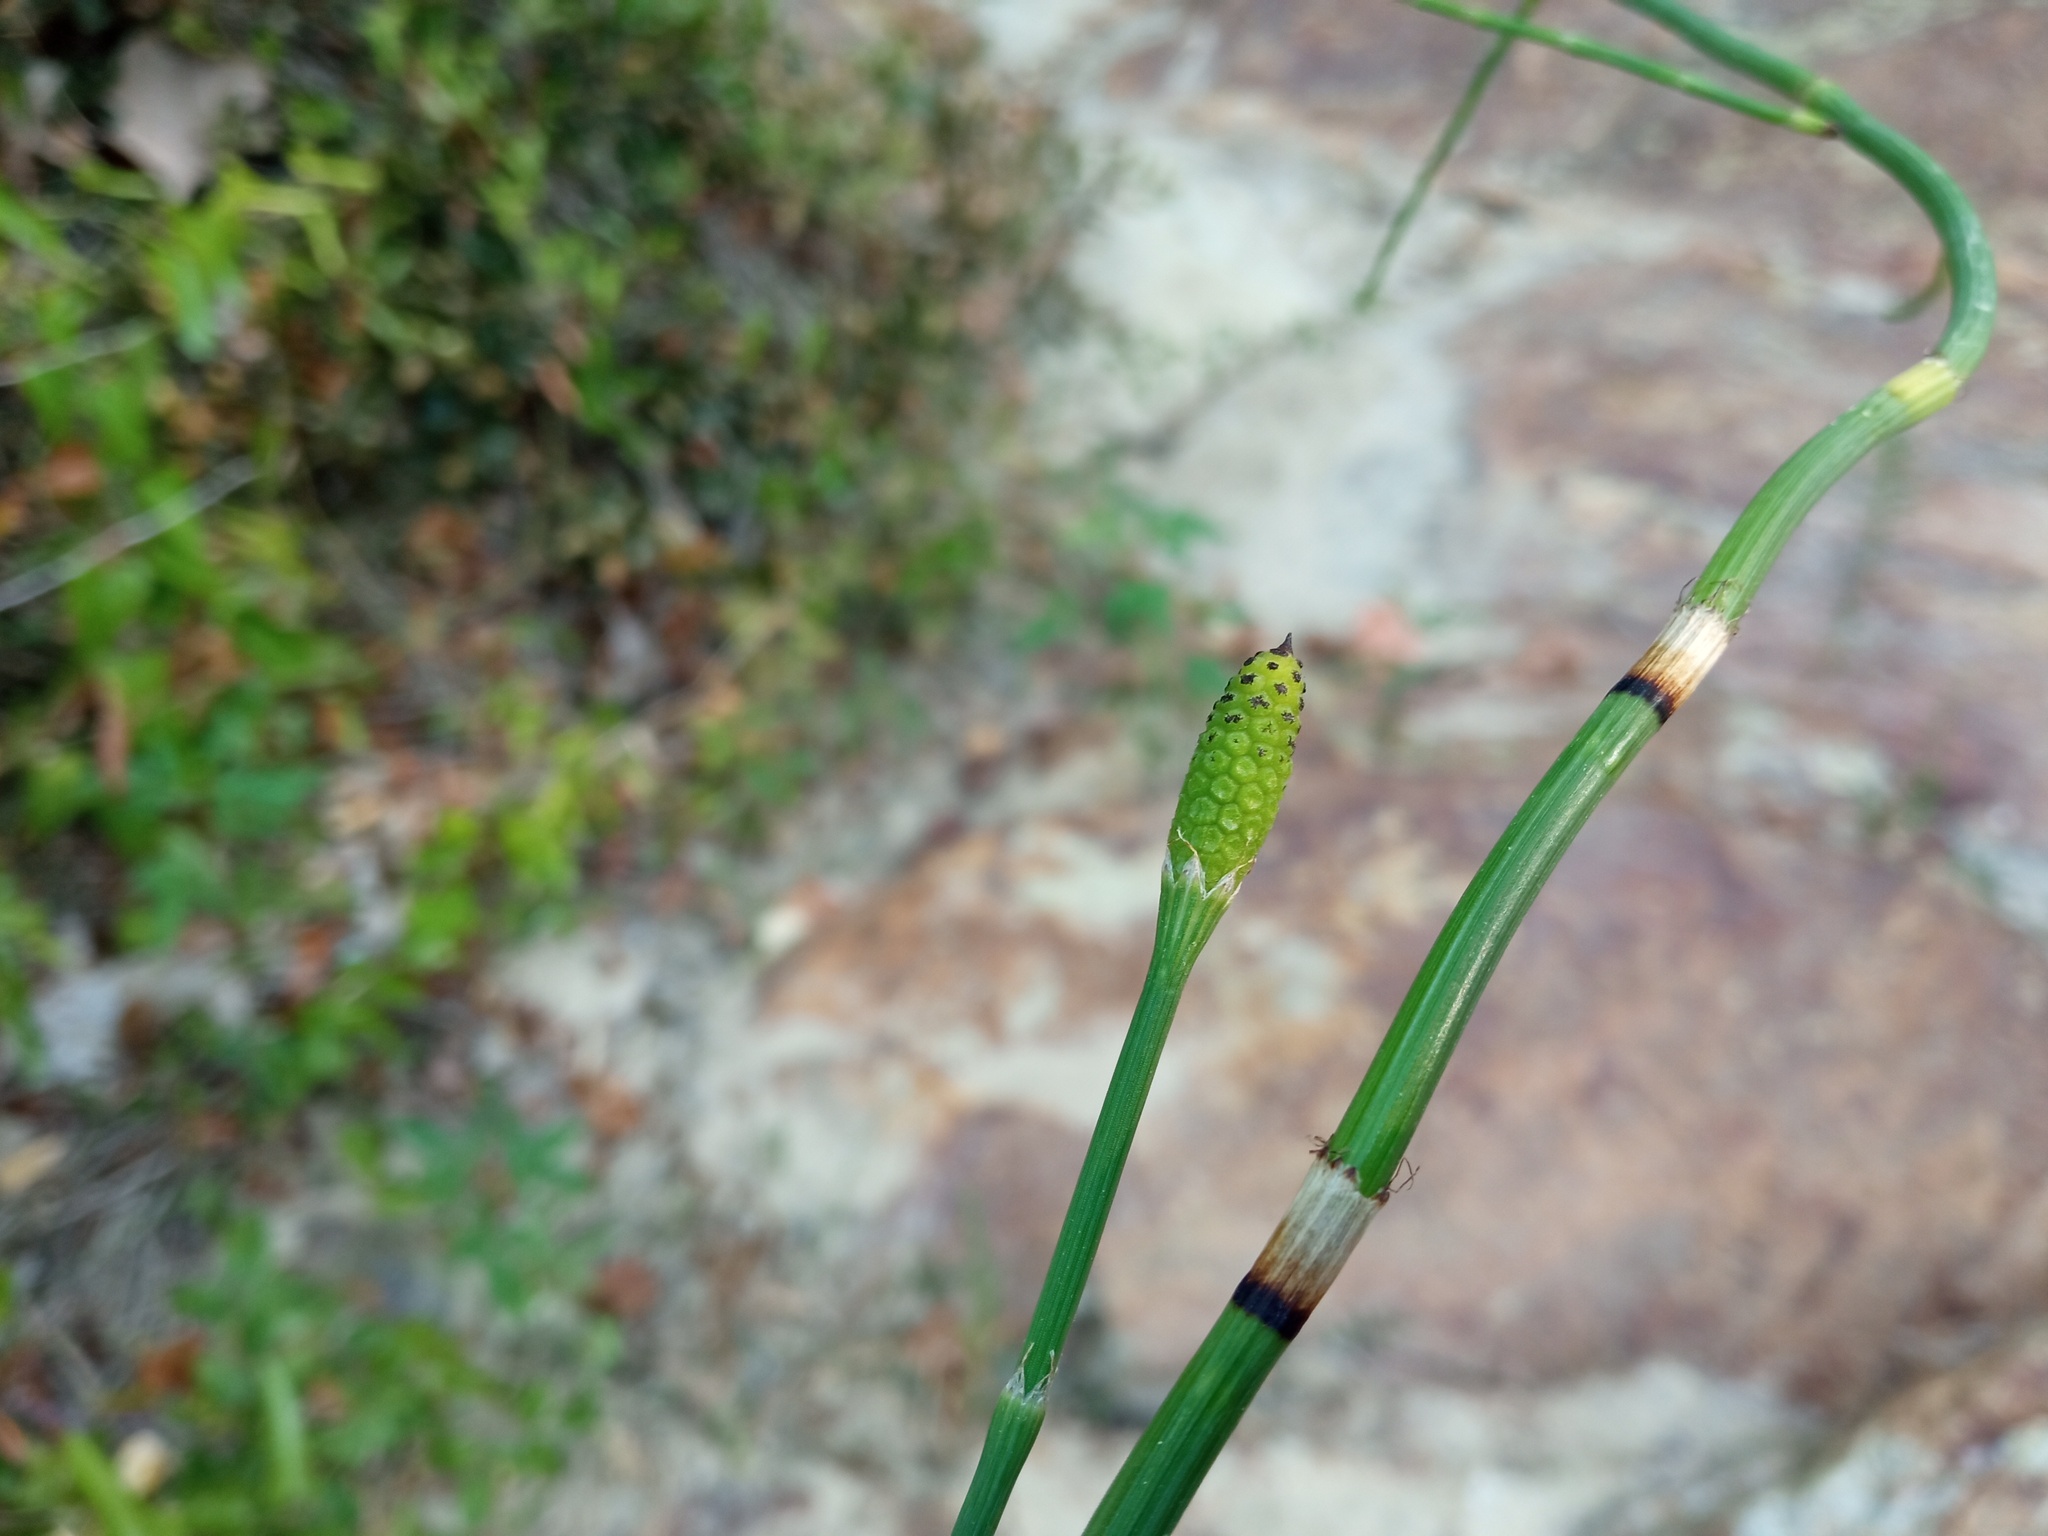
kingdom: Plantae
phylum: Tracheophyta
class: Polypodiopsida
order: Equisetales
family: Equisetaceae
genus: Equisetum
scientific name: Equisetum ramosissimum
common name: Branched horsetail
